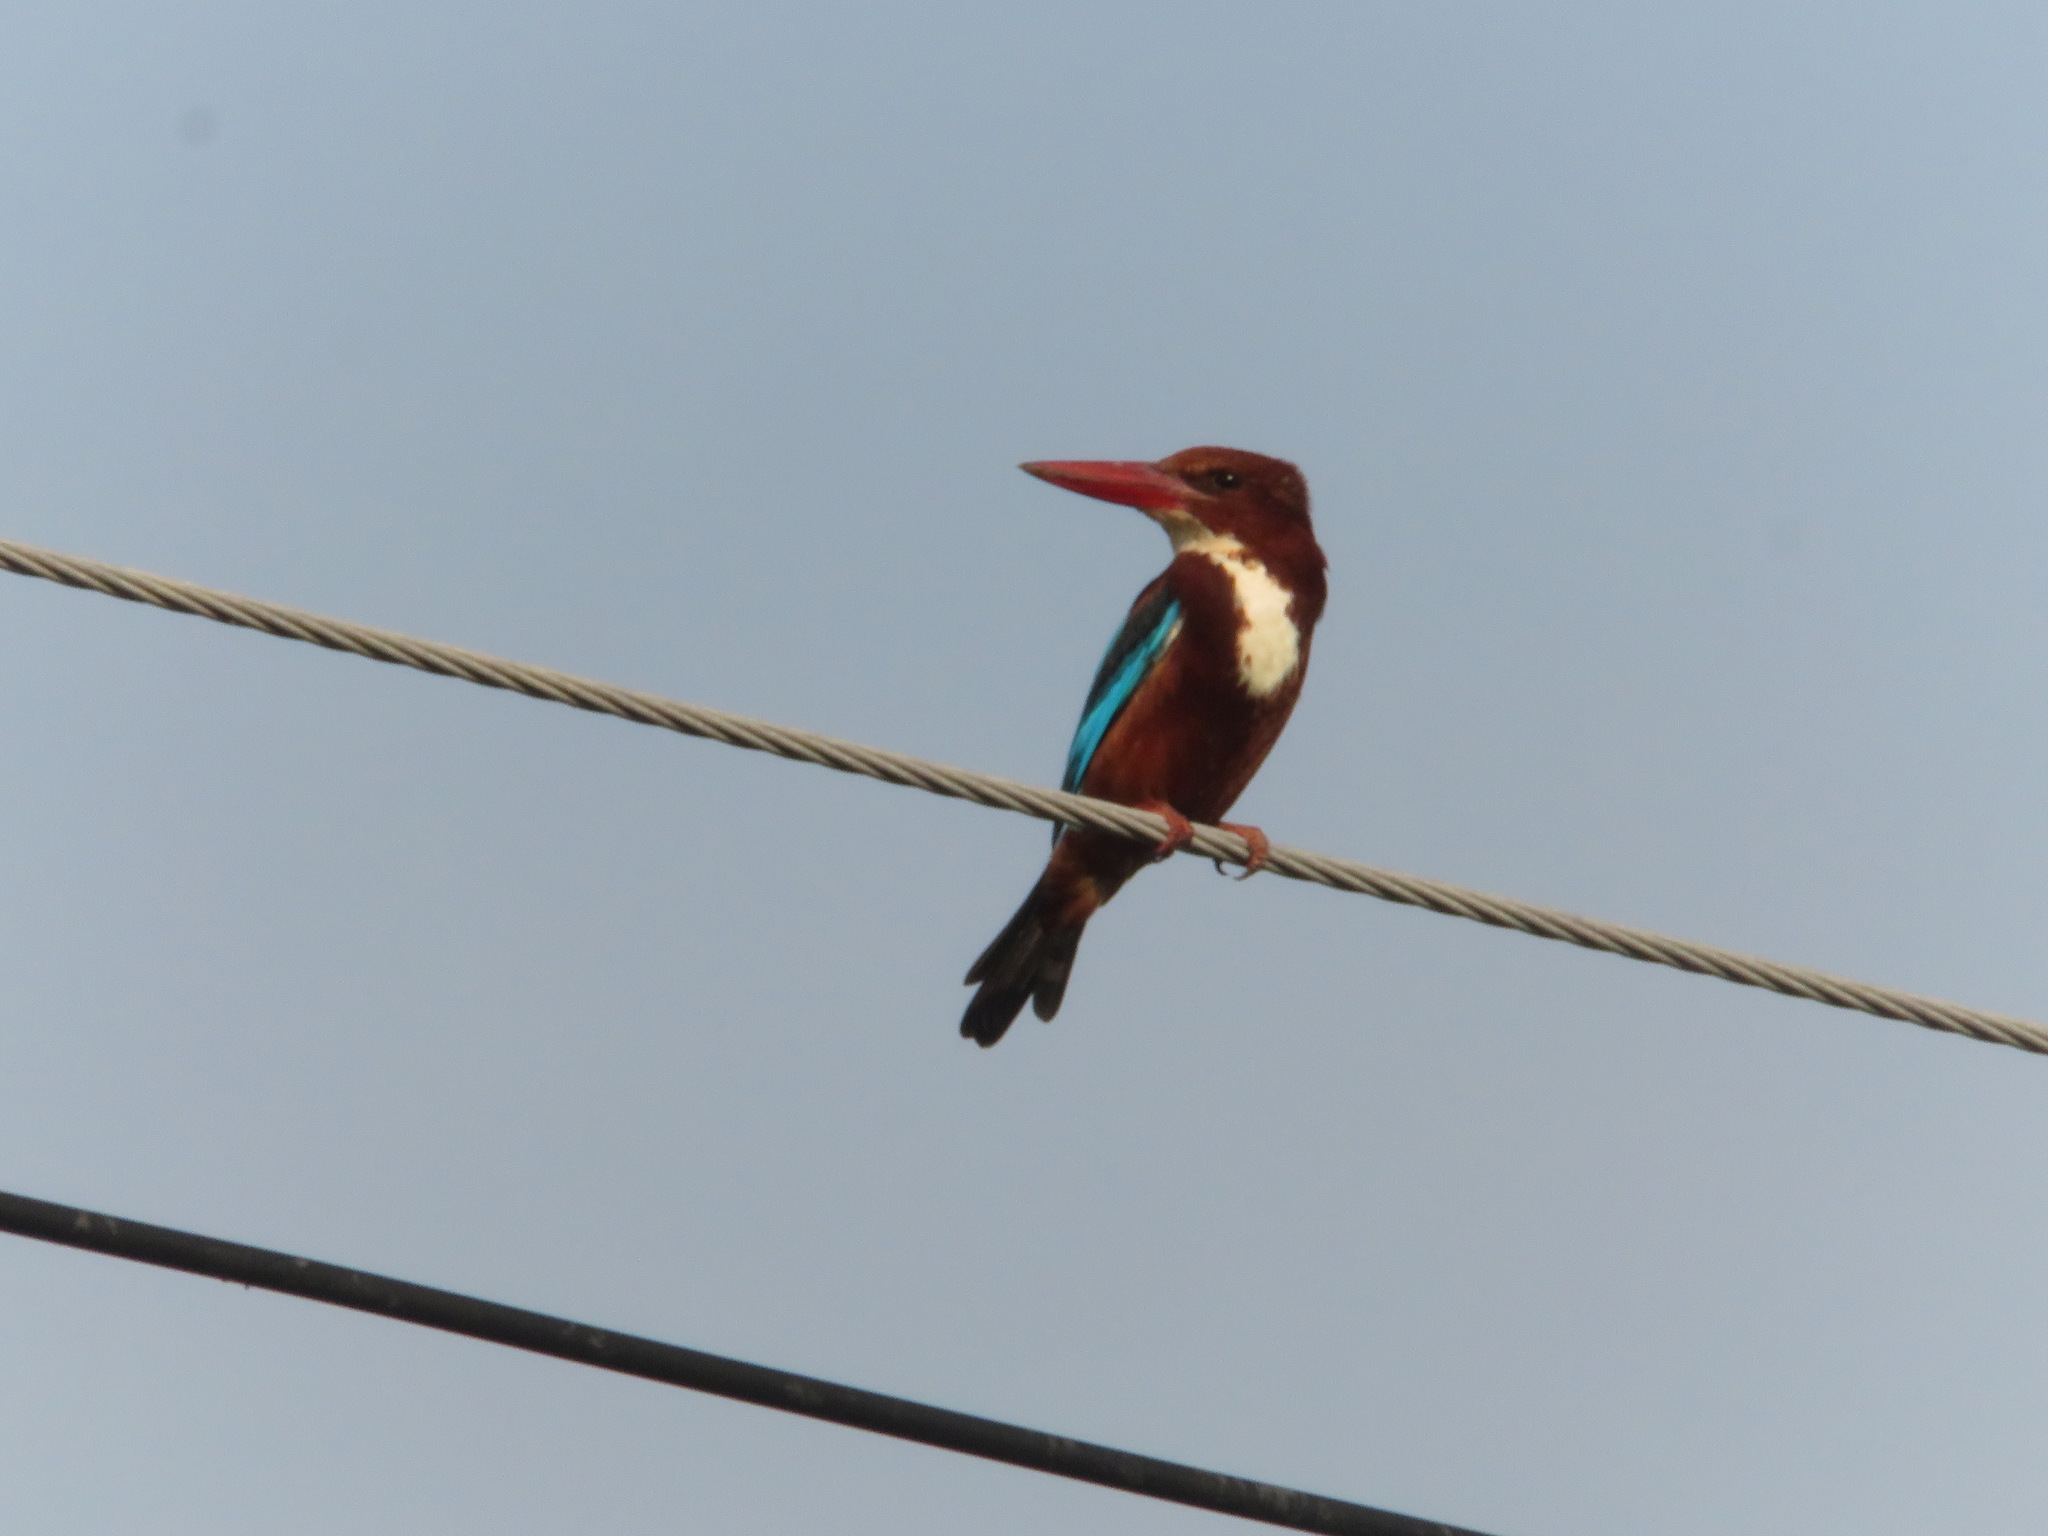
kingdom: Animalia
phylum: Chordata
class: Aves
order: Coraciiformes
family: Alcedinidae
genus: Halcyon
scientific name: Halcyon smyrnensis
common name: White-throated kingfisher
